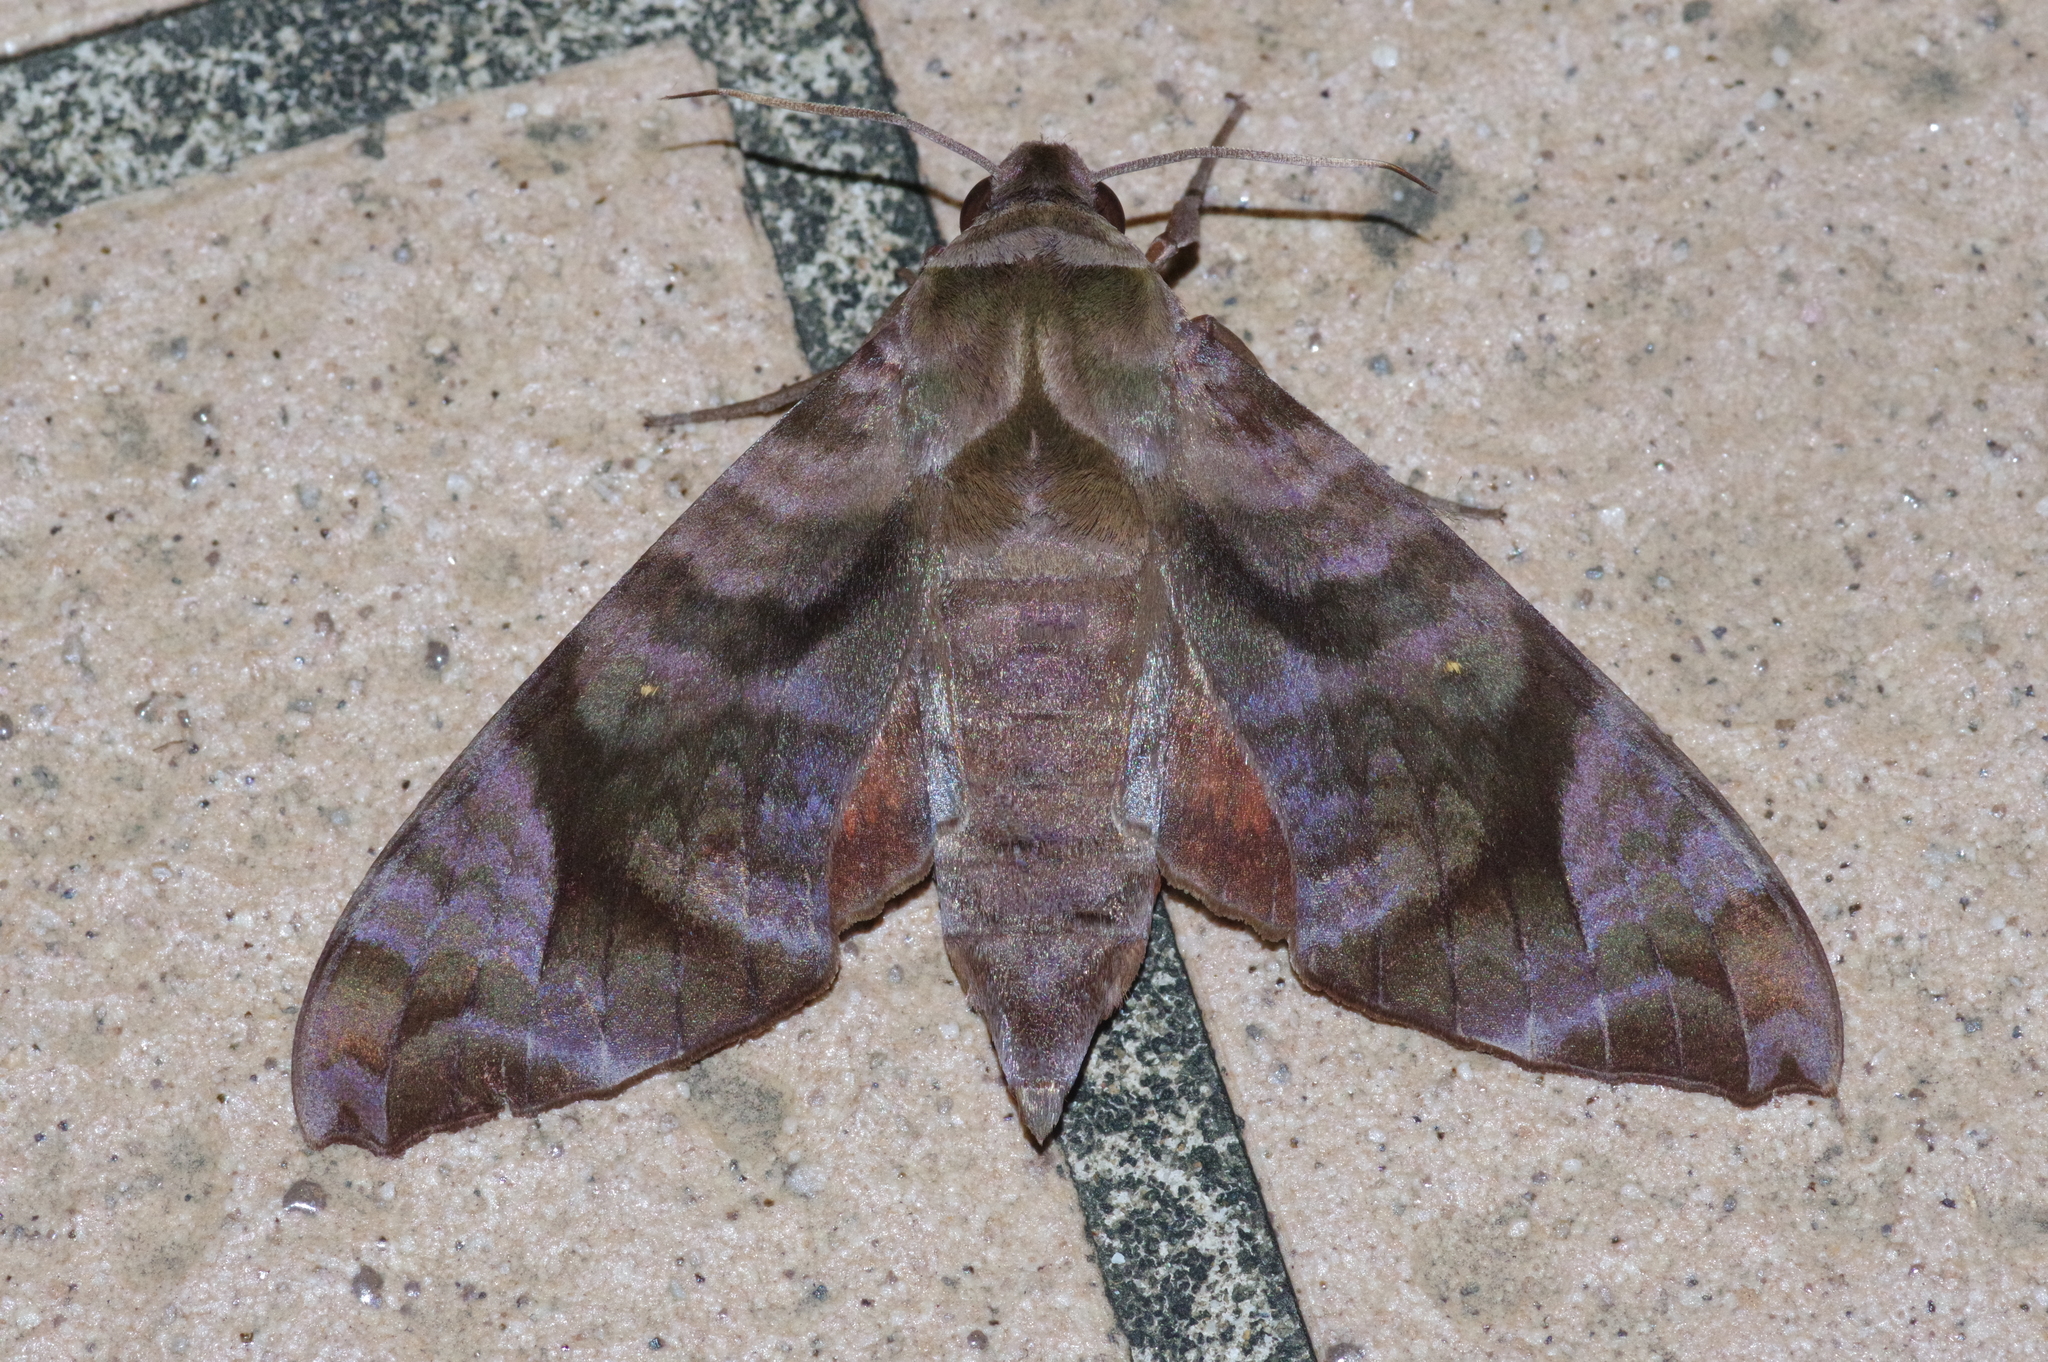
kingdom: Animalia
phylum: Arthropoda
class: Insecta
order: Lepidoptera
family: Sphingidae
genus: Acosmeryx
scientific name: Acosmeryx castanea
